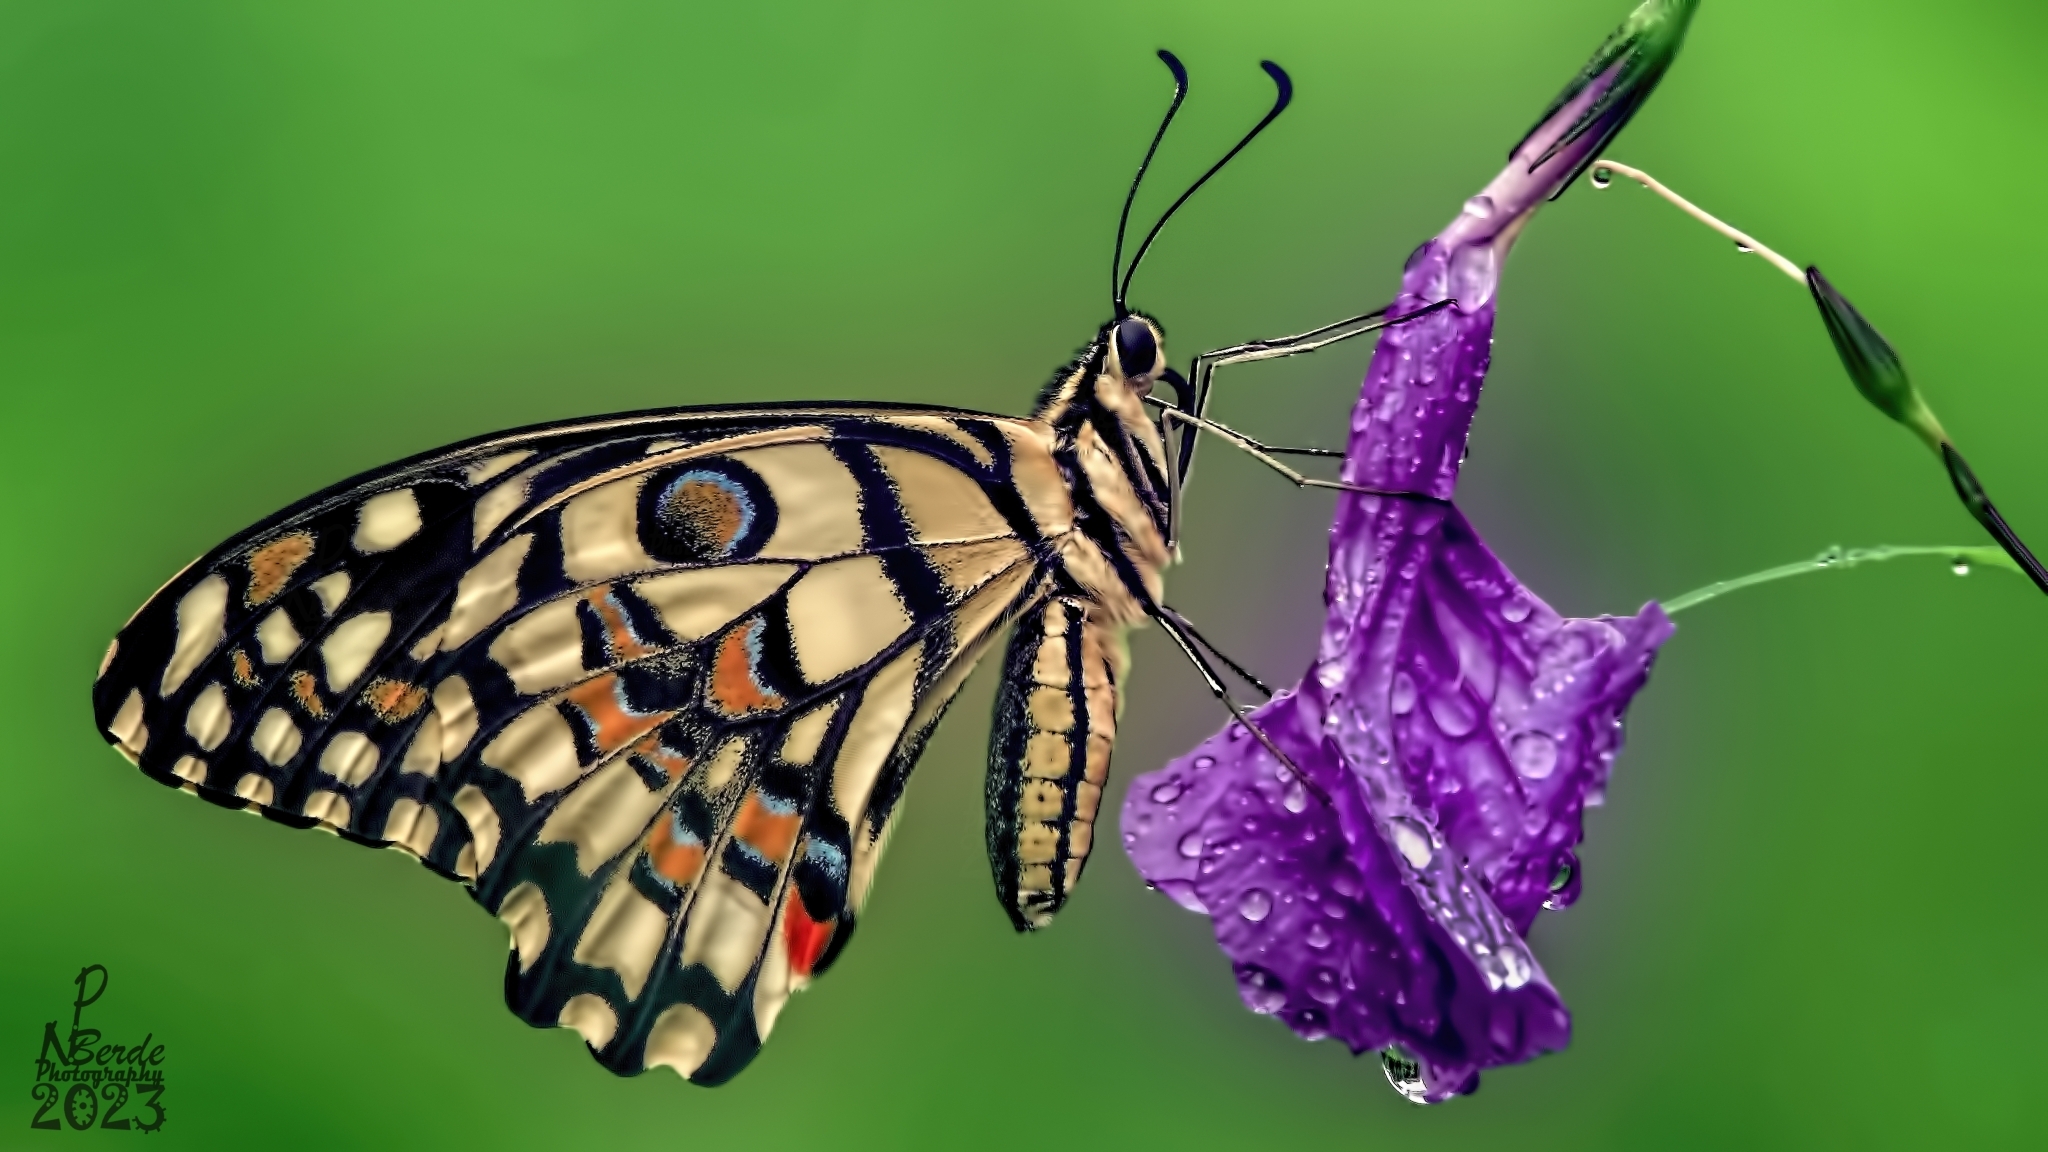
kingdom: Animalia
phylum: Arthropoda
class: Insecta
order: Lepidoptera
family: Papilionidae
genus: Papilio
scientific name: Papilio demoleus
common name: Lime butterfly
